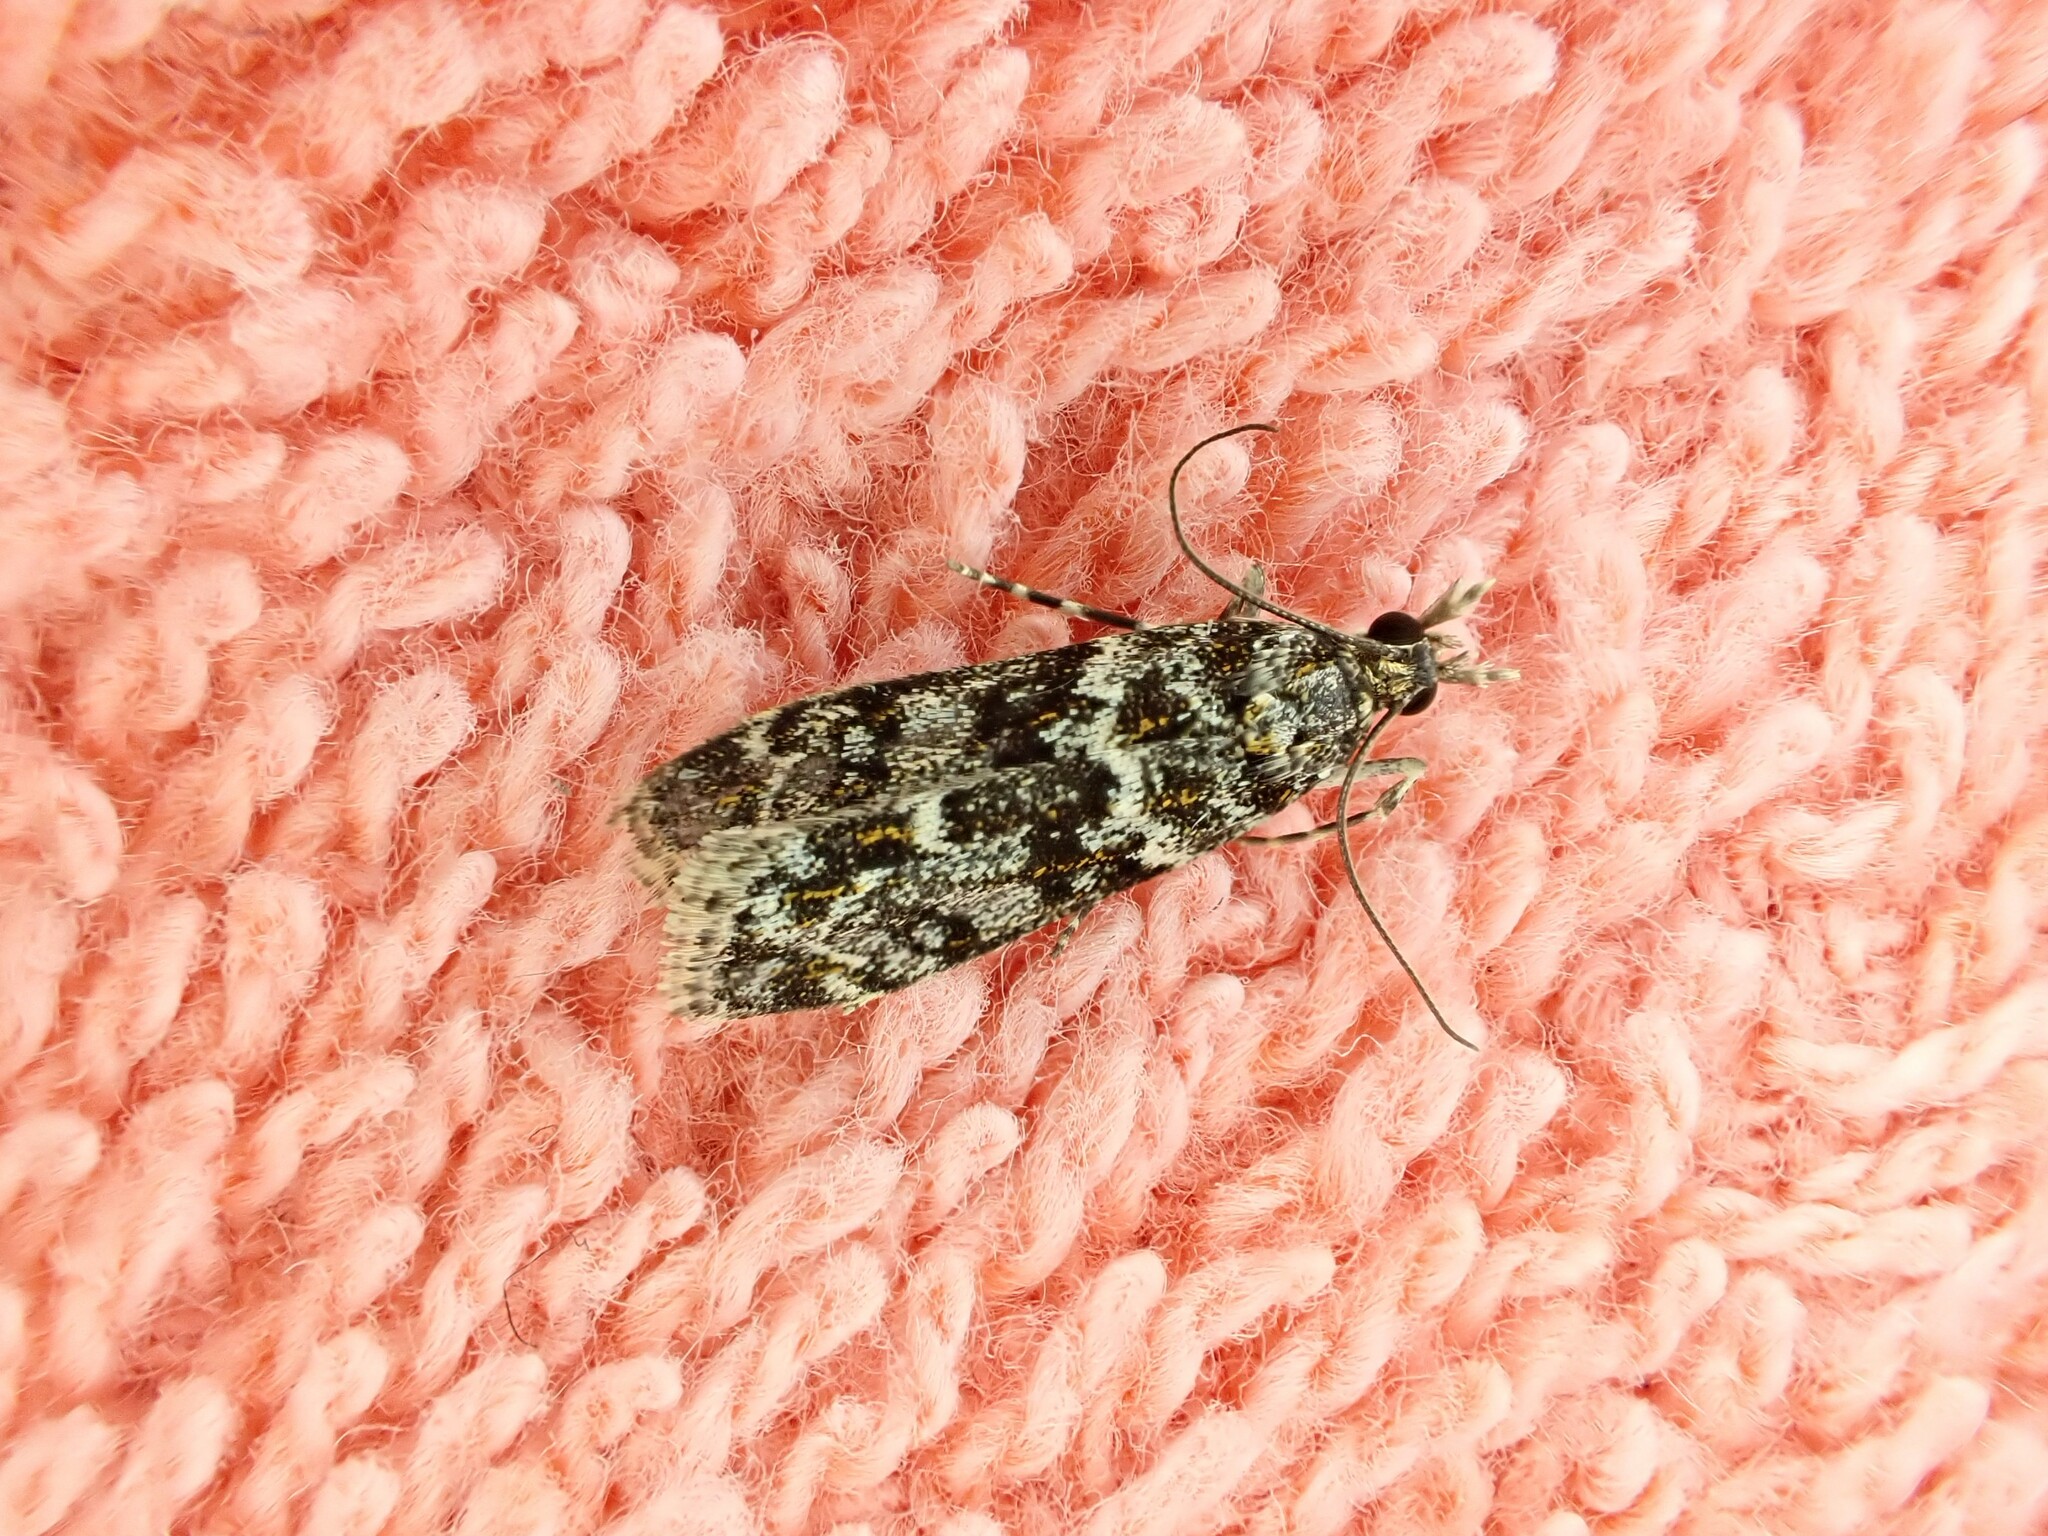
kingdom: Animalia
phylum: Arthropoda
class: Insecta
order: Lepidoptera
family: Crambidae
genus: Eudonia
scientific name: Eudonia
